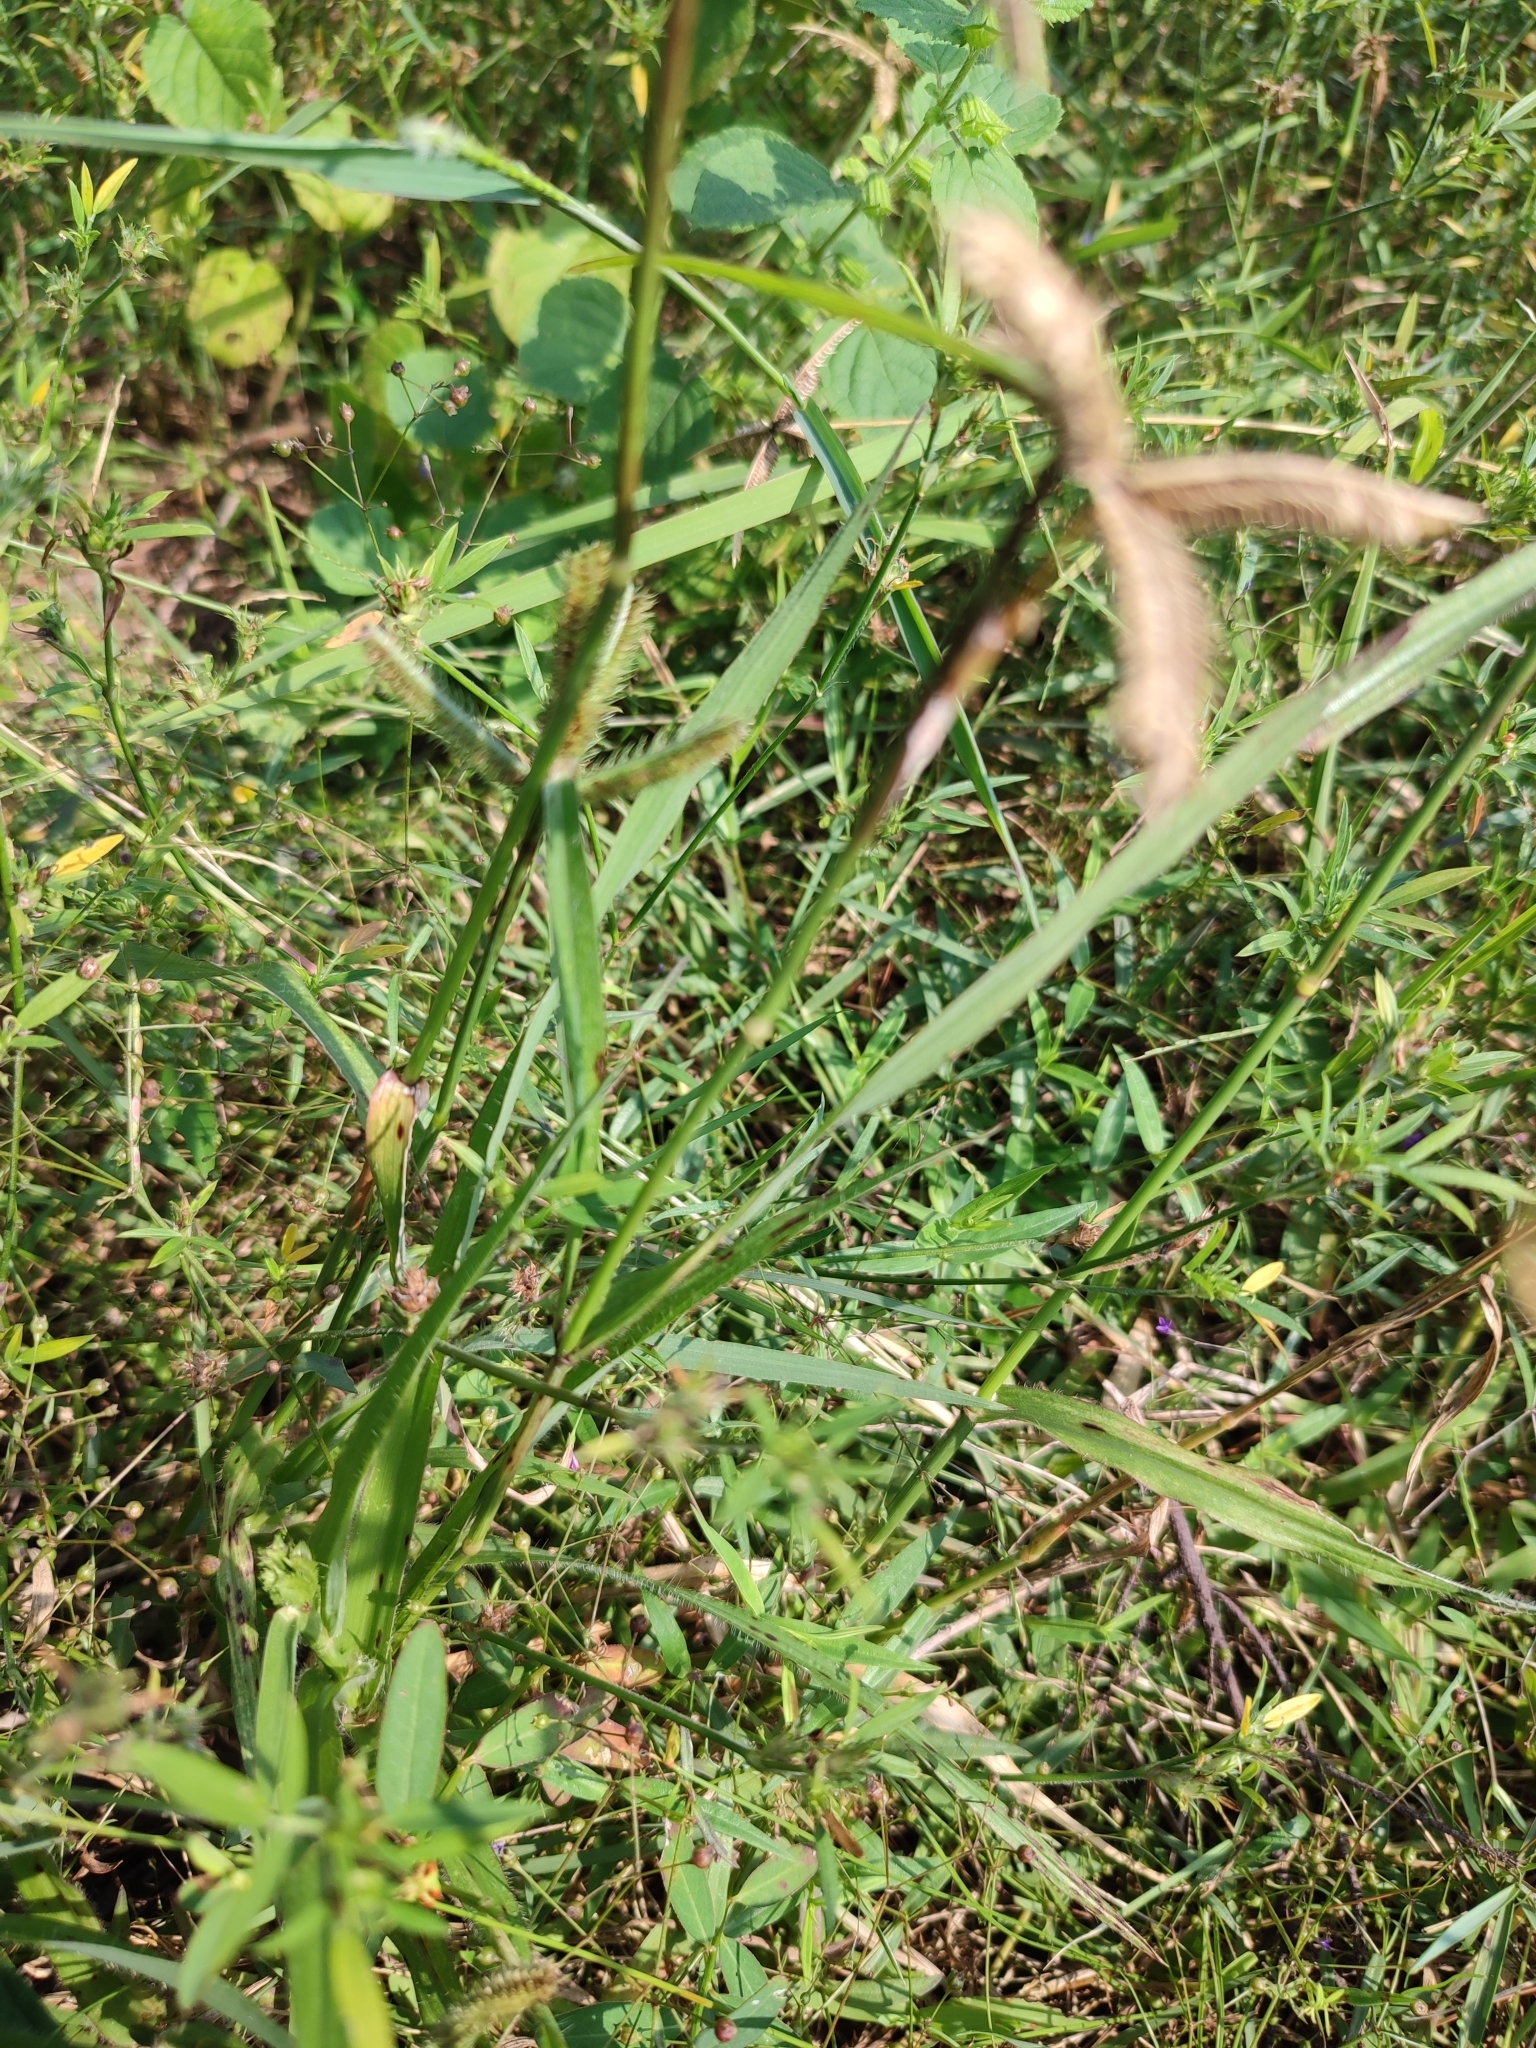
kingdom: Plantae
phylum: Tracheophyta
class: Liliopsida
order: Poales
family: Poaceae
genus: Dactyloctenium
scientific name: Dactyloctenium aegyptium
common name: Egyptian grass
